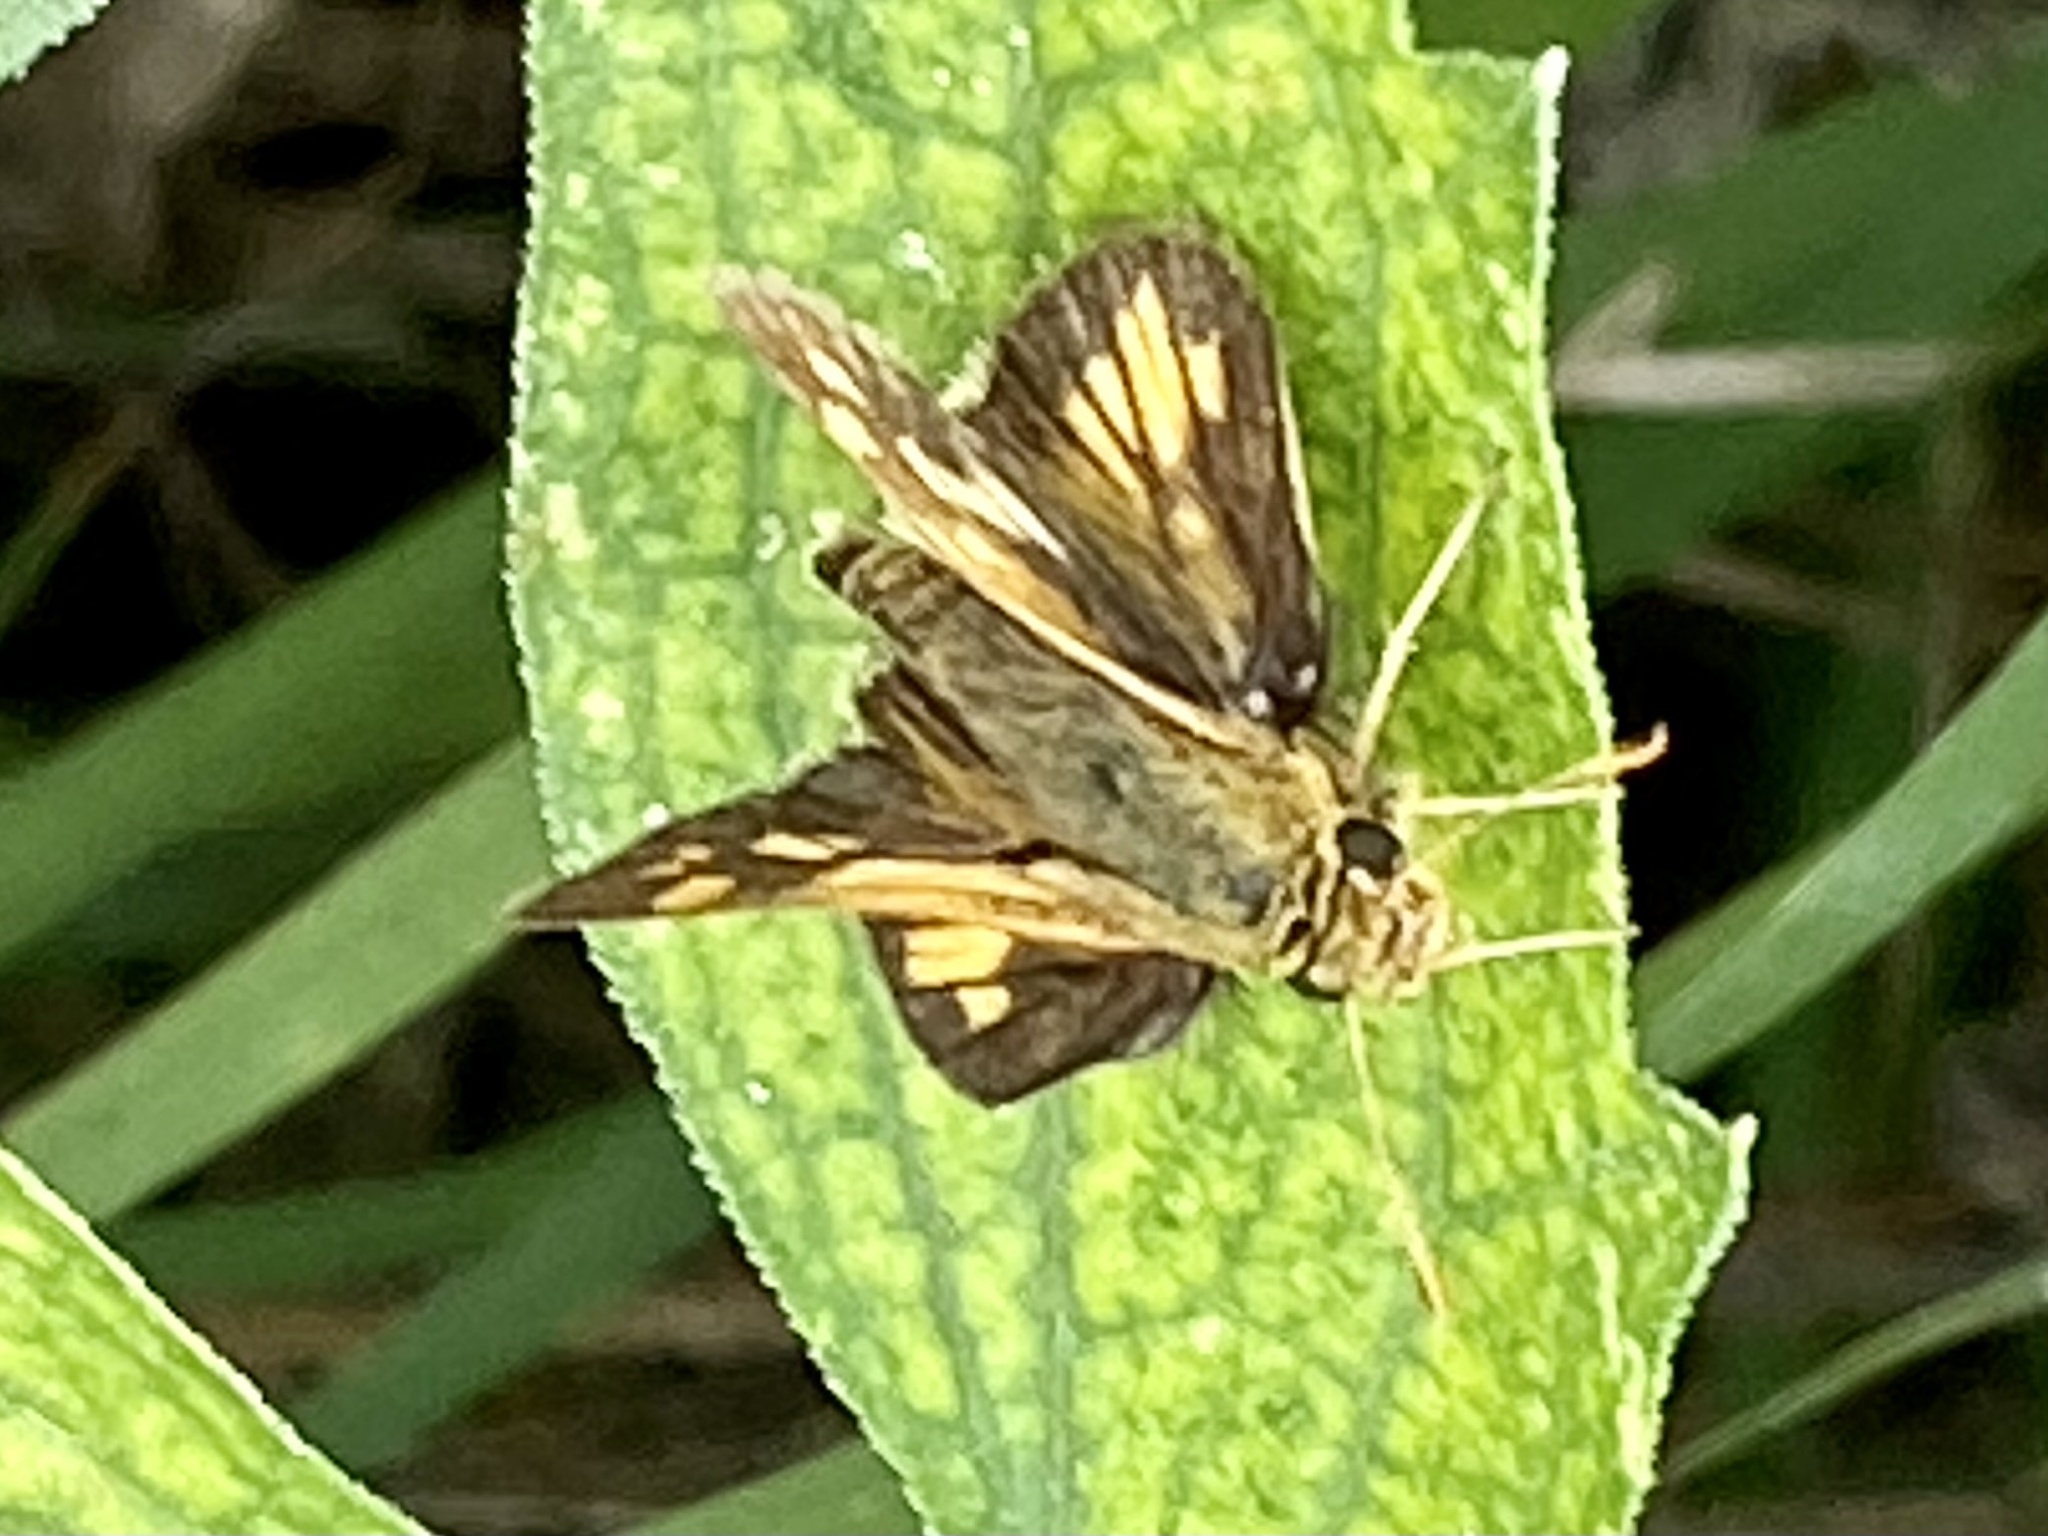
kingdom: Animalia
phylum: Arthropoda
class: Insecta
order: Lepidoptera
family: Hesperiidae
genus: Polites
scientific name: Polites coras
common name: Peck's skipper
